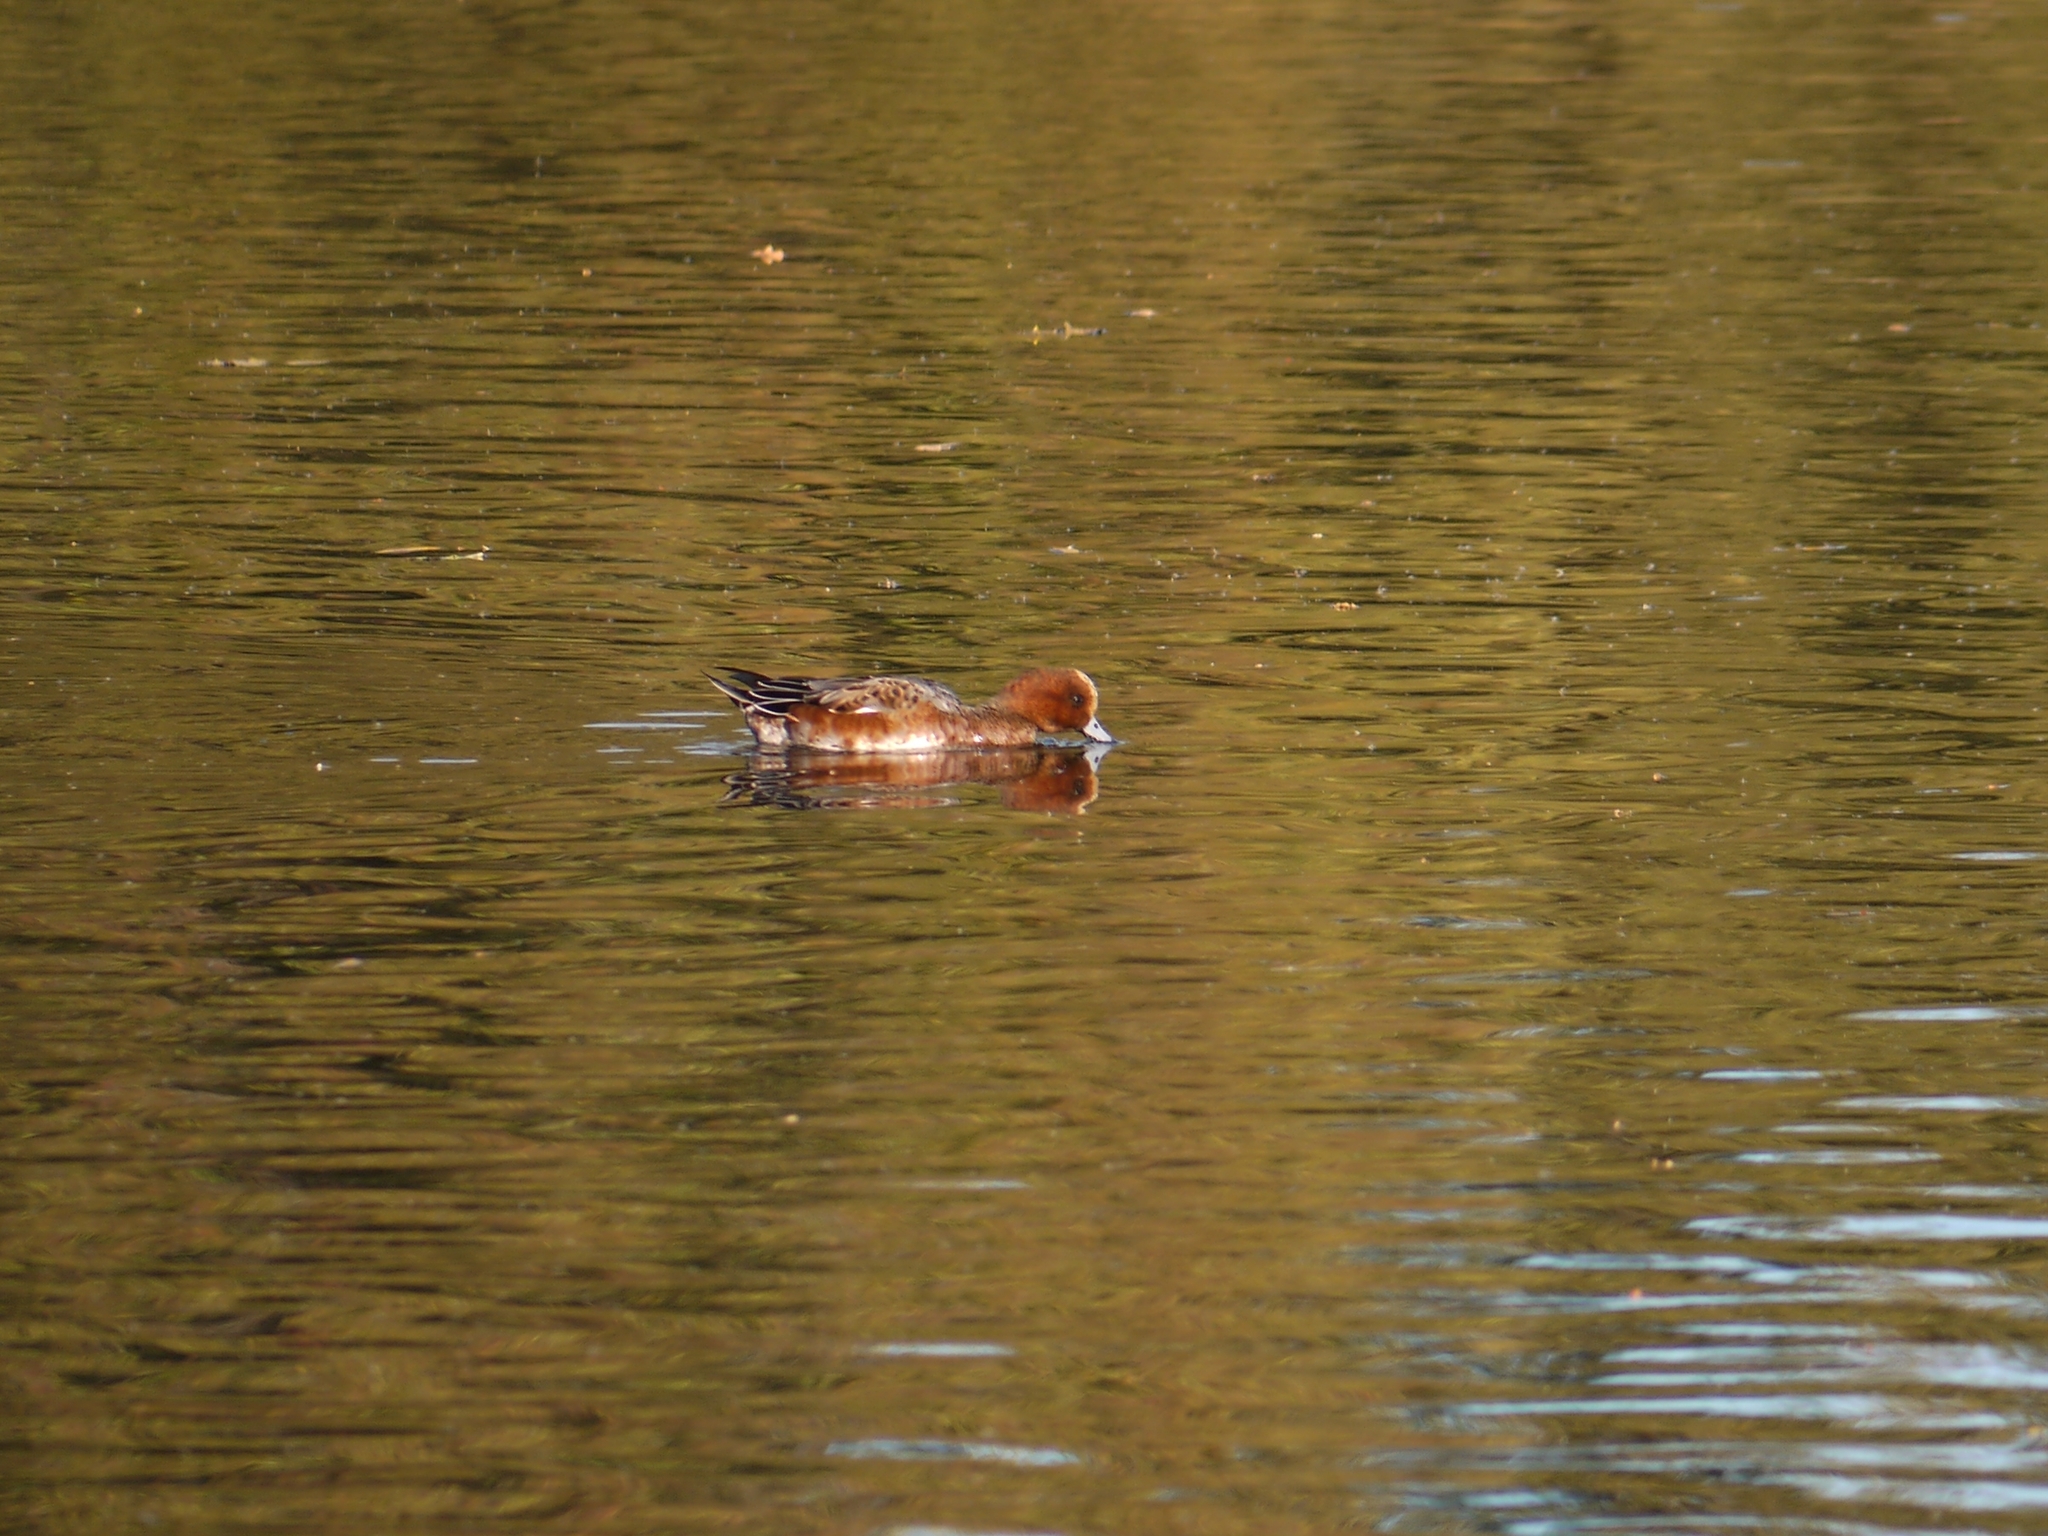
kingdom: Animalia
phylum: Chordata
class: Aves
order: Anseriformes
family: Anatidae
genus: Mareca
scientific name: Mareca penelope
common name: Eurasian wigeon
